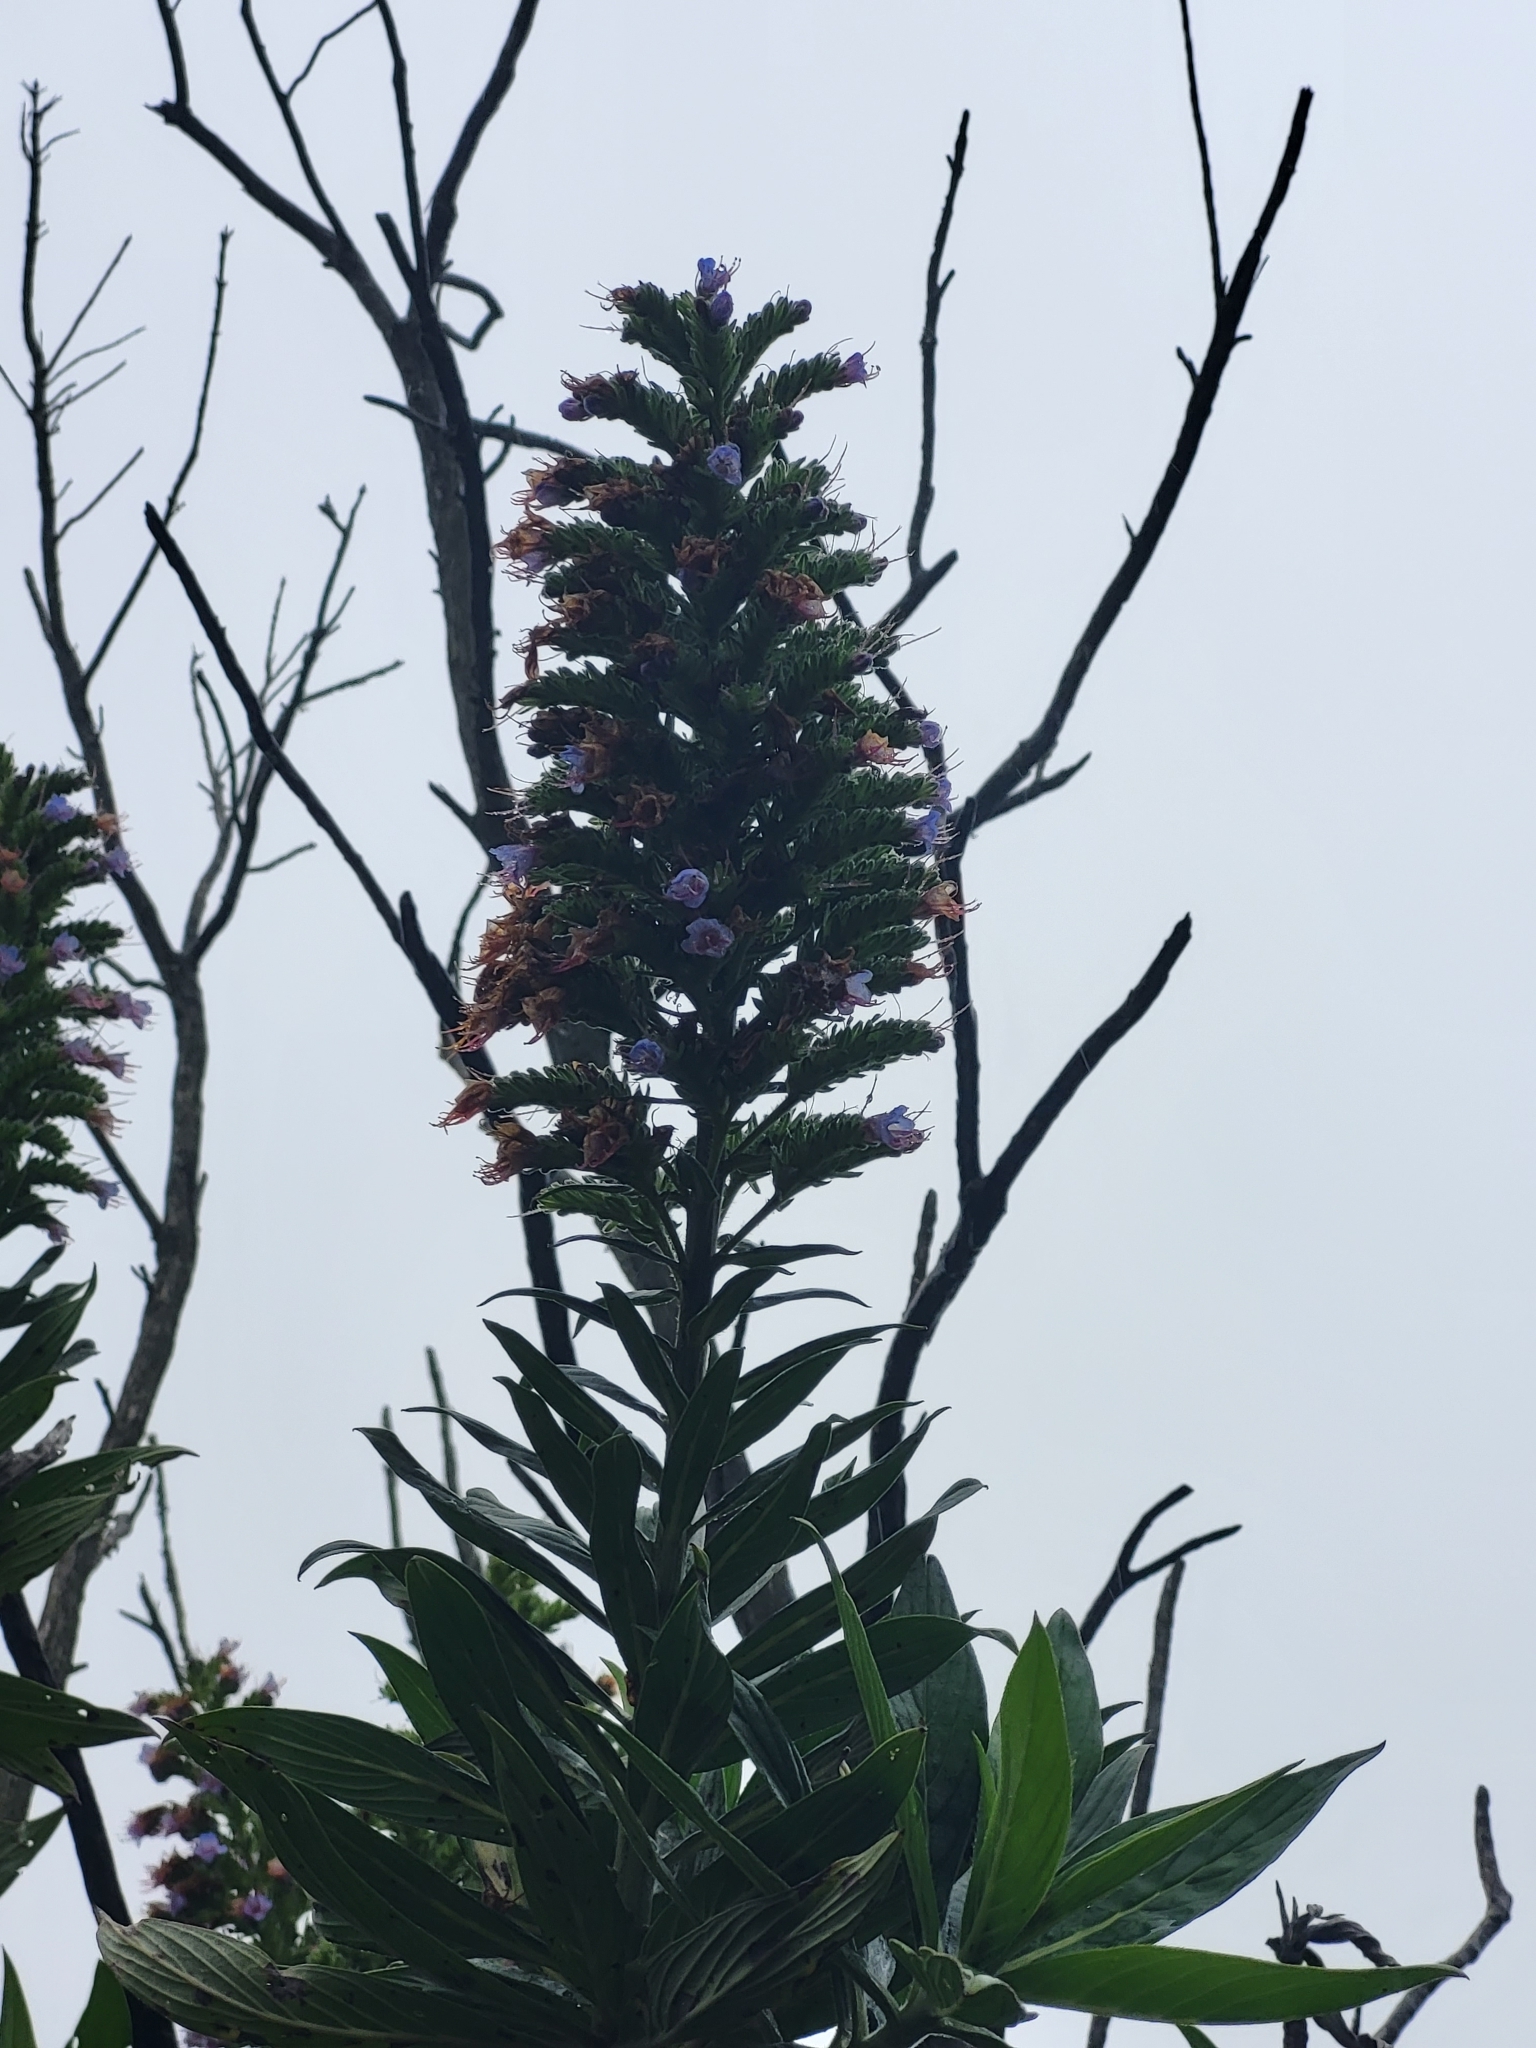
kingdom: Plantae
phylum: Tracheophyta
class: Magnoliopsida
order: Boraginales
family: Boraginaceae
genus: Echium
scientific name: Echium acanthocarpum
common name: Blue bugloss
